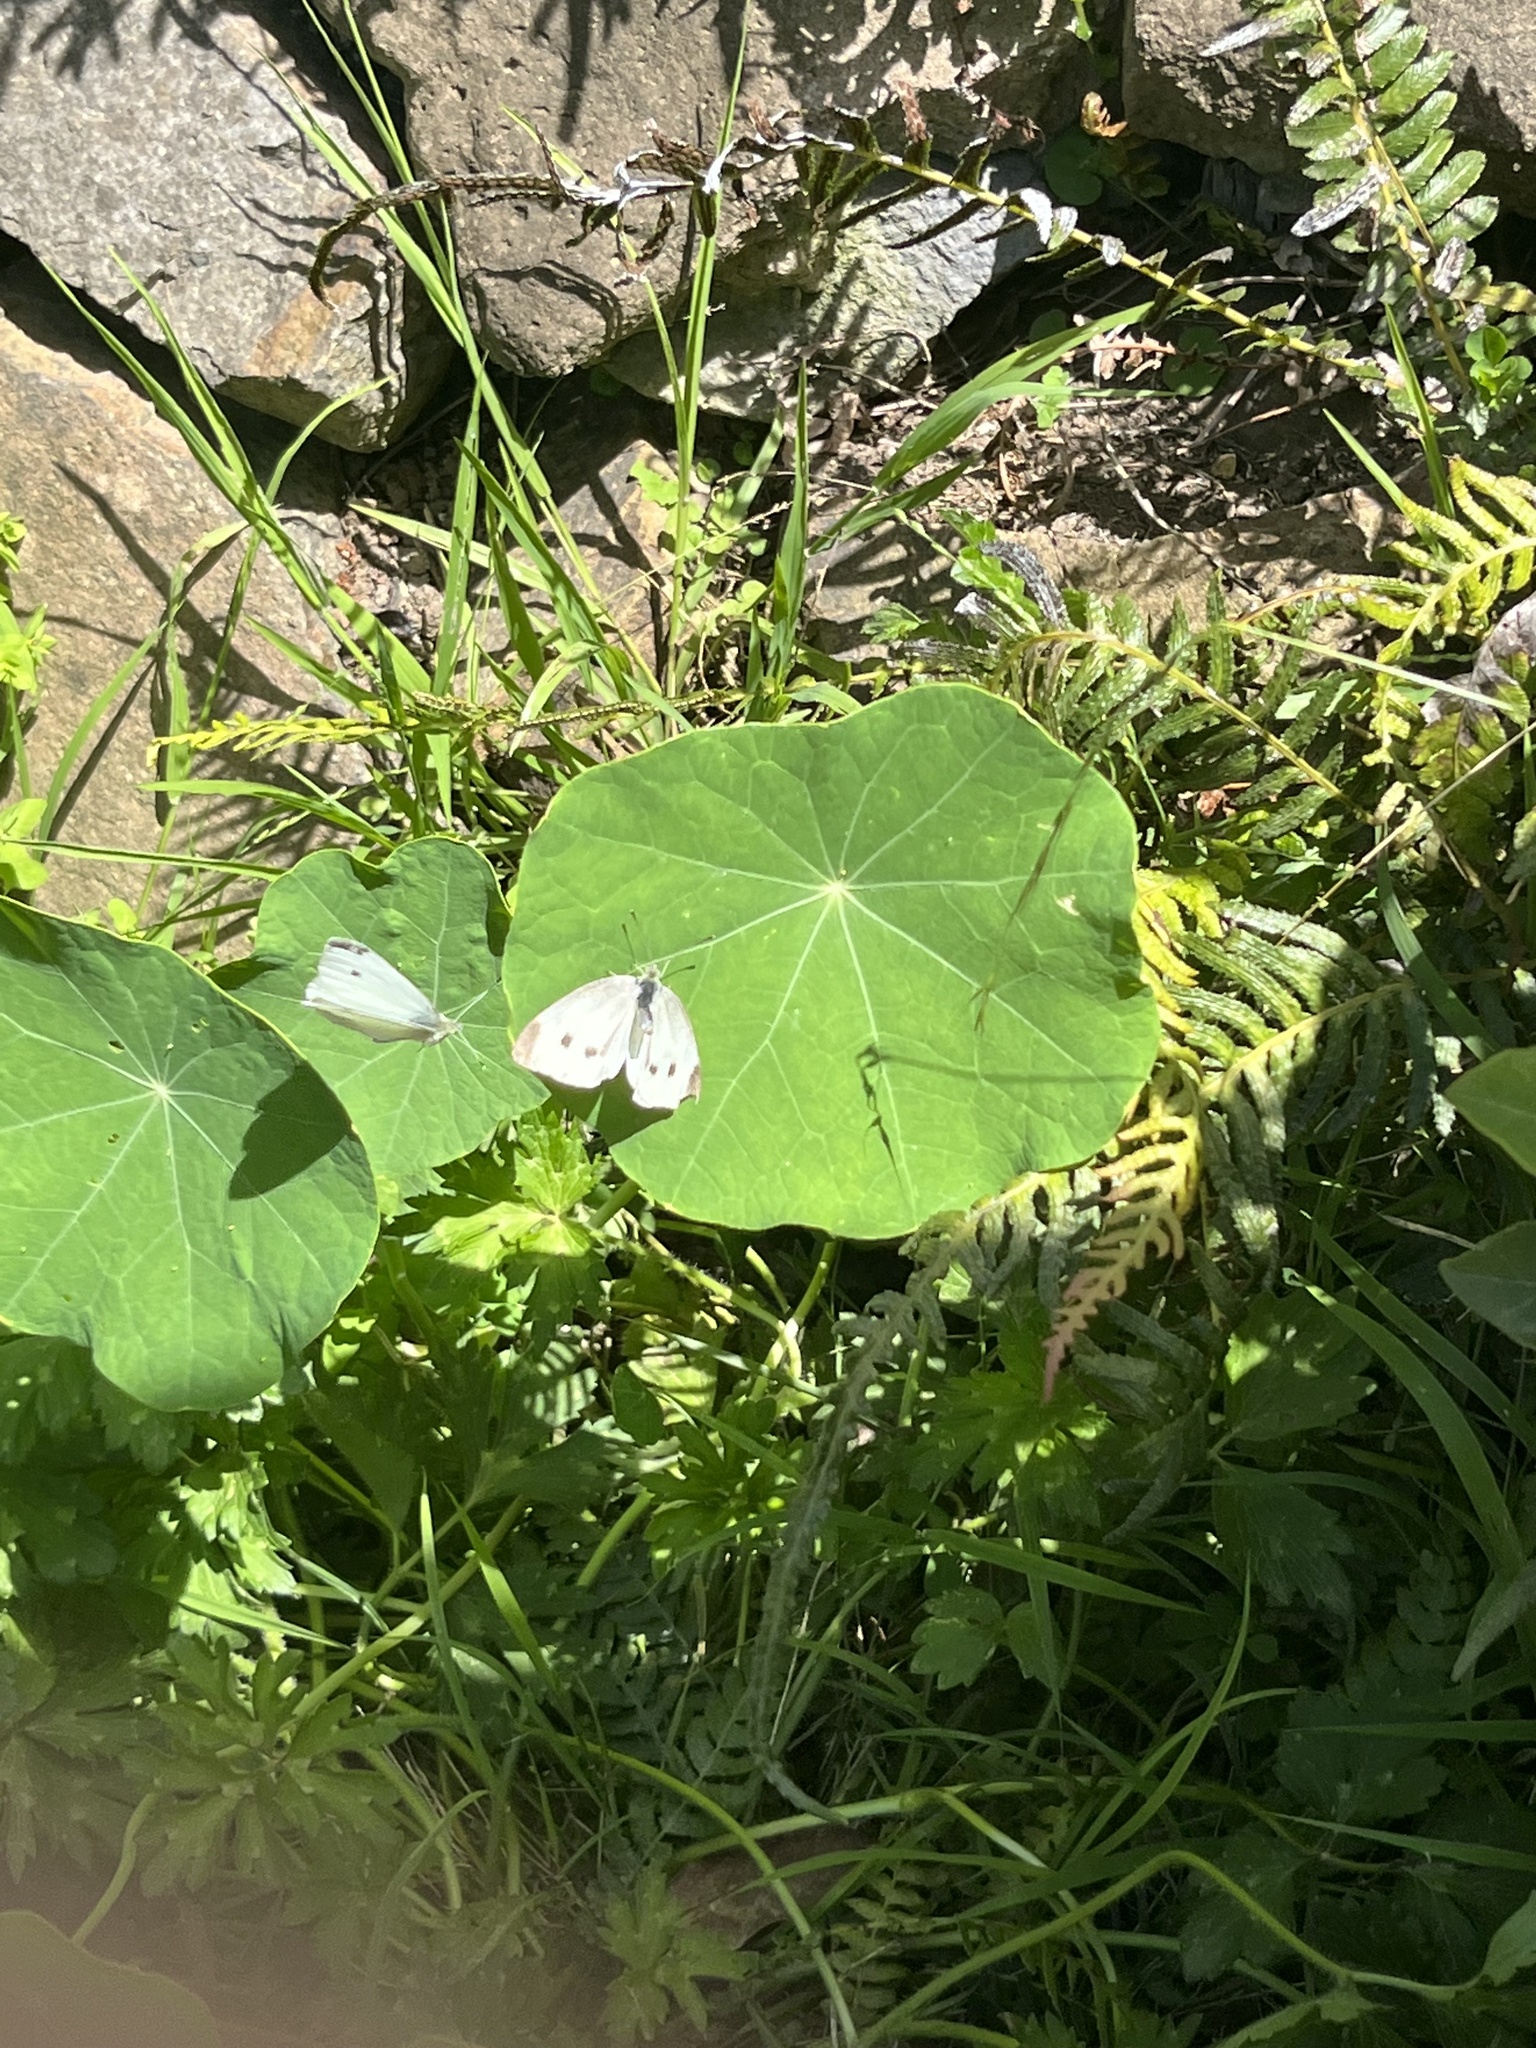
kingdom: Animalia
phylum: Arthropoda
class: Insecta
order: Lepidoptera
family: Pieridae
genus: Pieris
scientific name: Pieris rapae
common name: Small white
